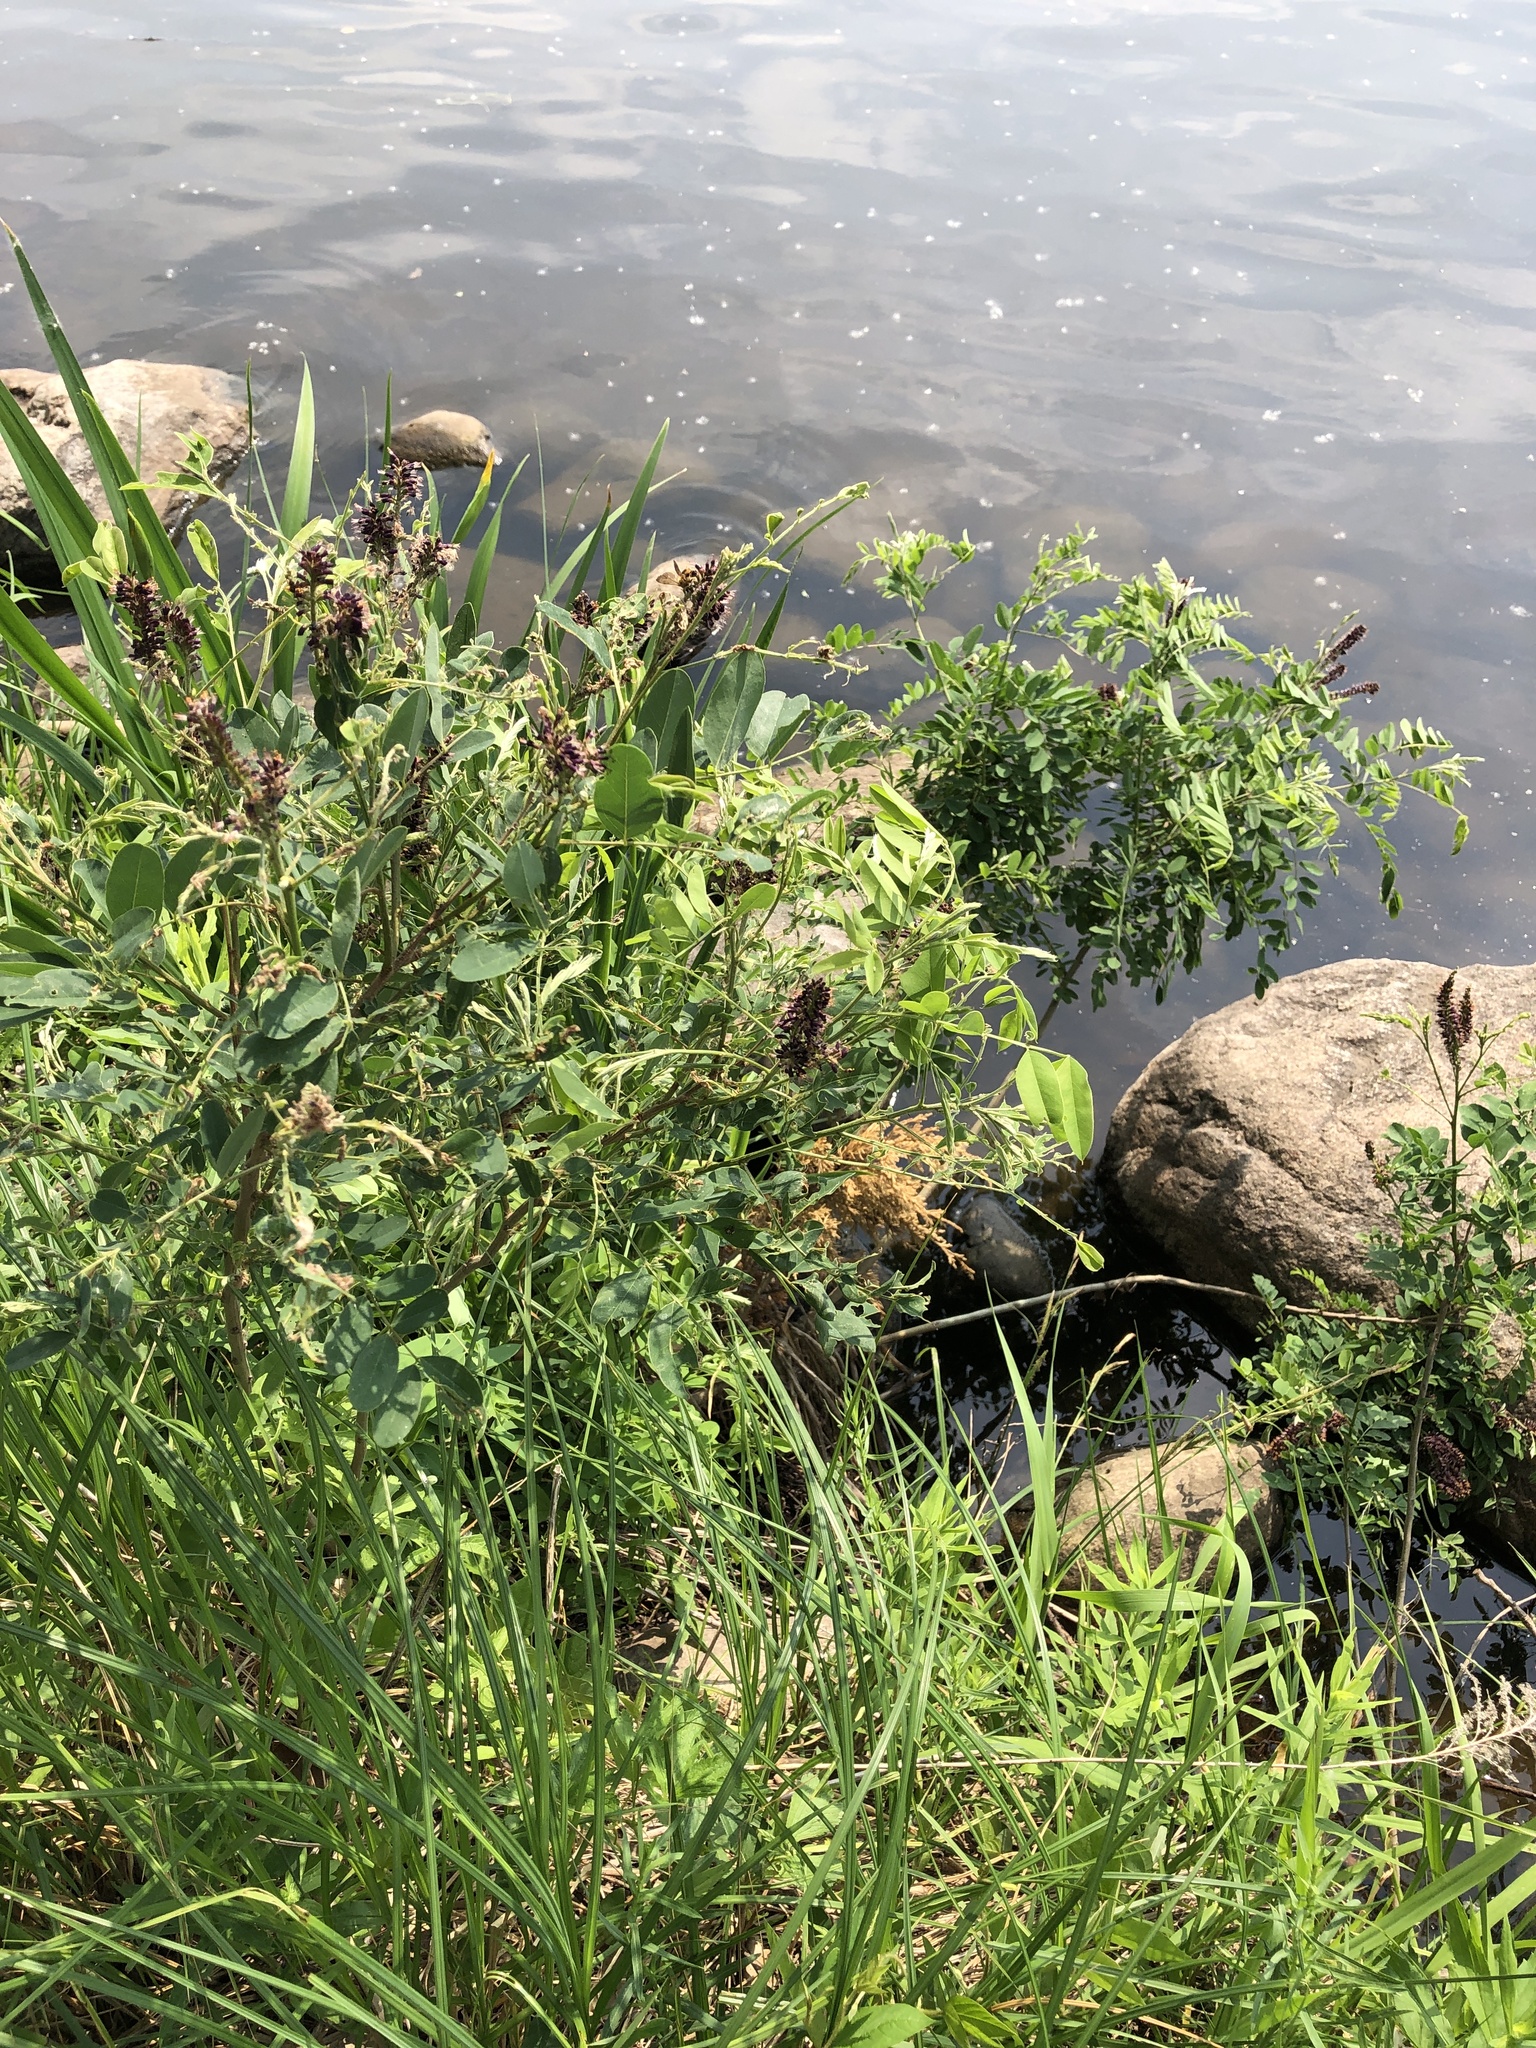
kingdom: Plantae
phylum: Tracheophyta
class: Magnoliopsida
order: Fabales
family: Fabaceae
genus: Amorpha
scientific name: Amorpha fruticosa
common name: False indigo
